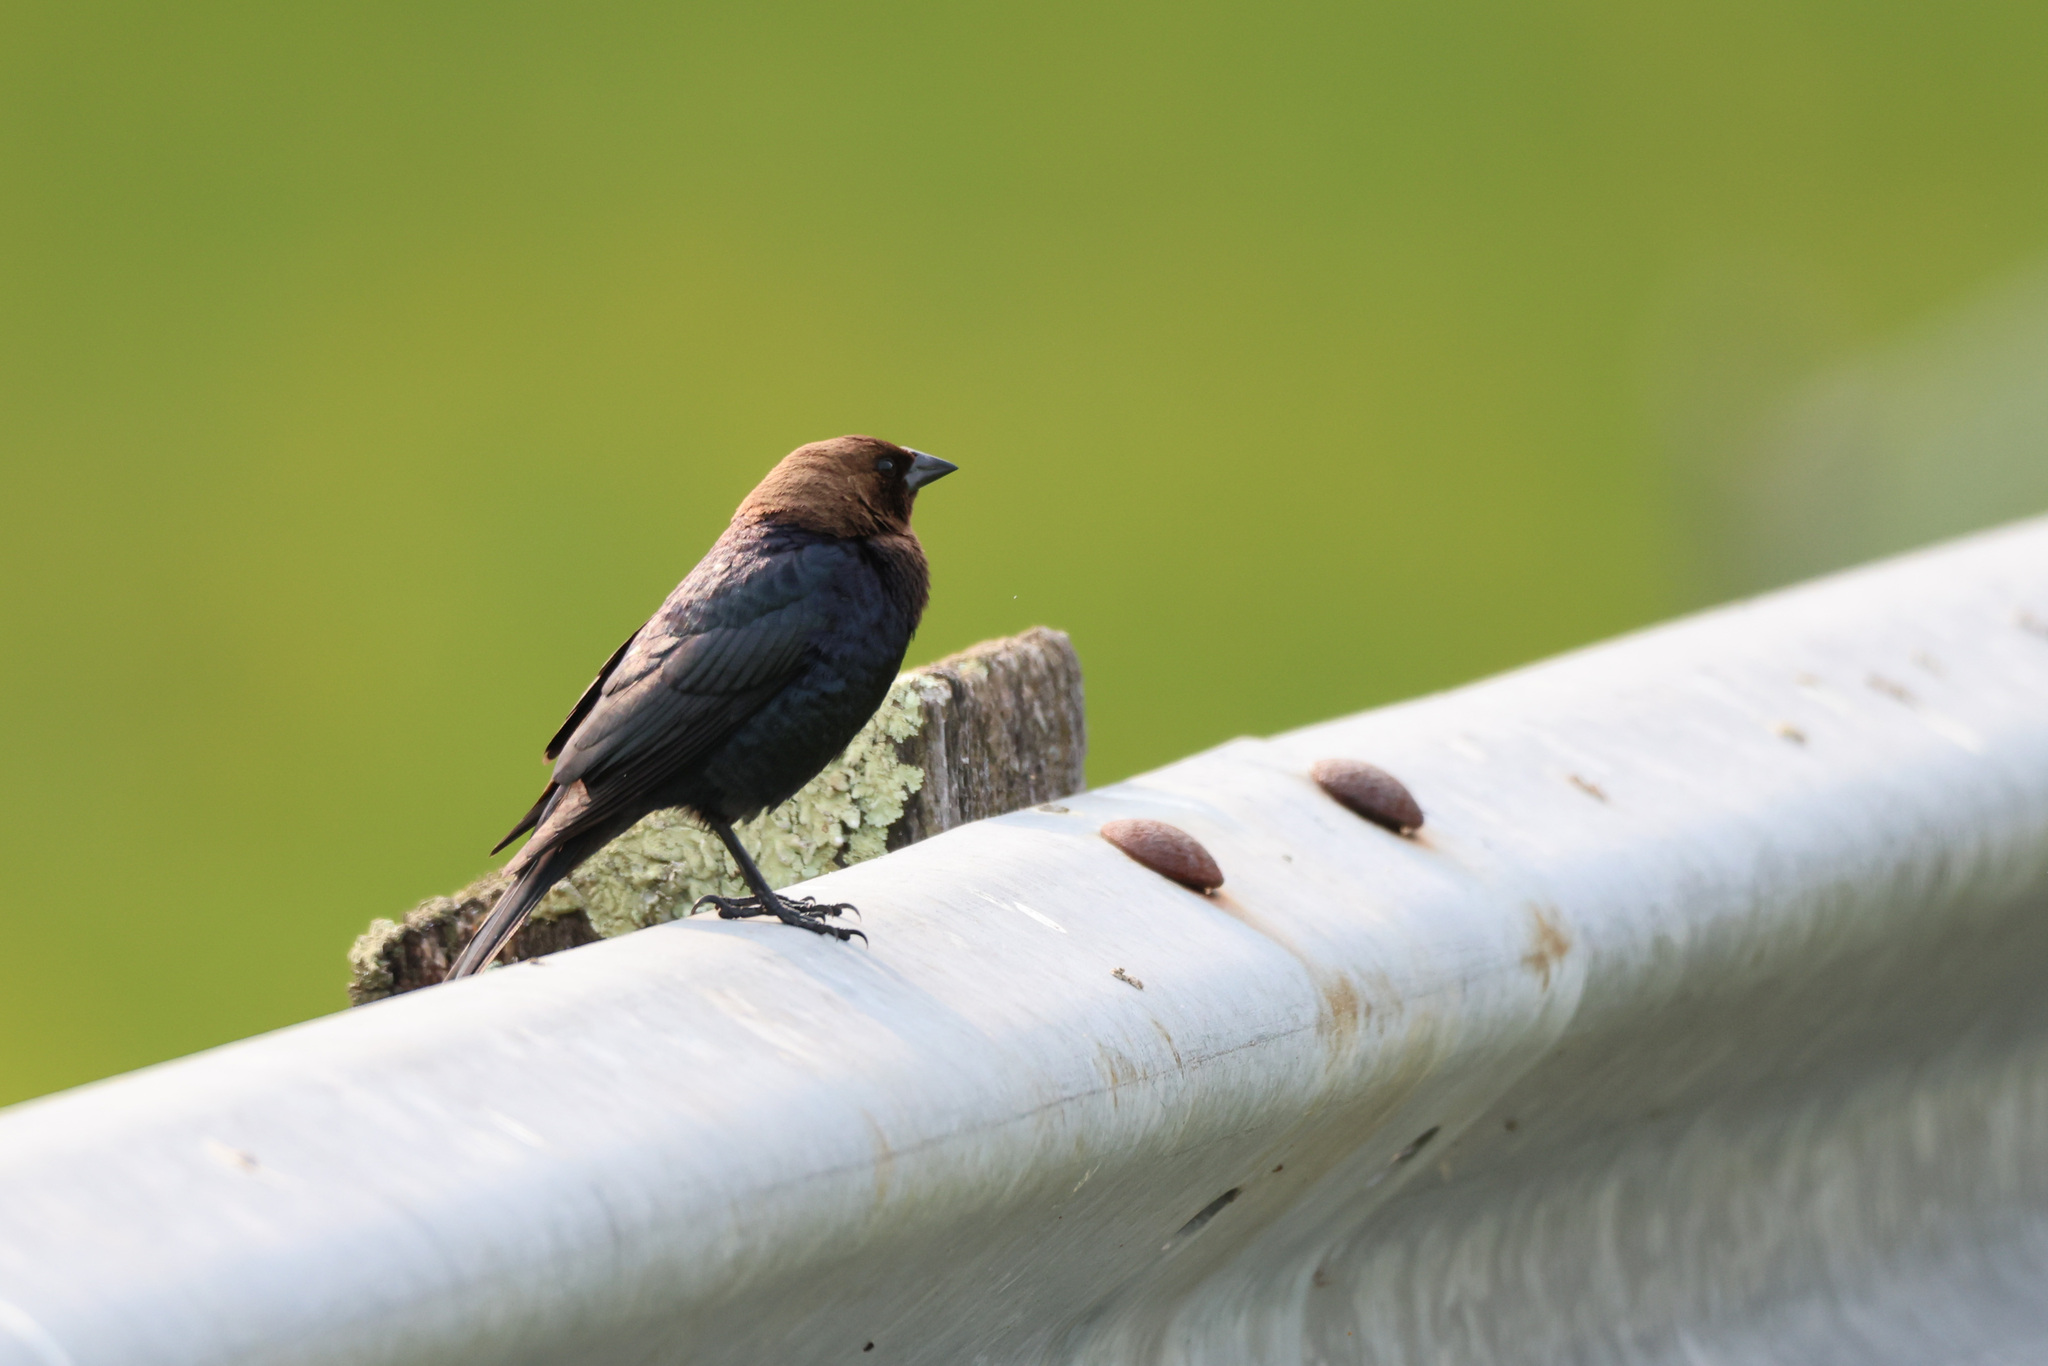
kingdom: Animalia
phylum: Chordata
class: Aves
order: Passeriformes
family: Icteridae
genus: Molothrus
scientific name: Molothrus ater
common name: Brown-headed cowbird
